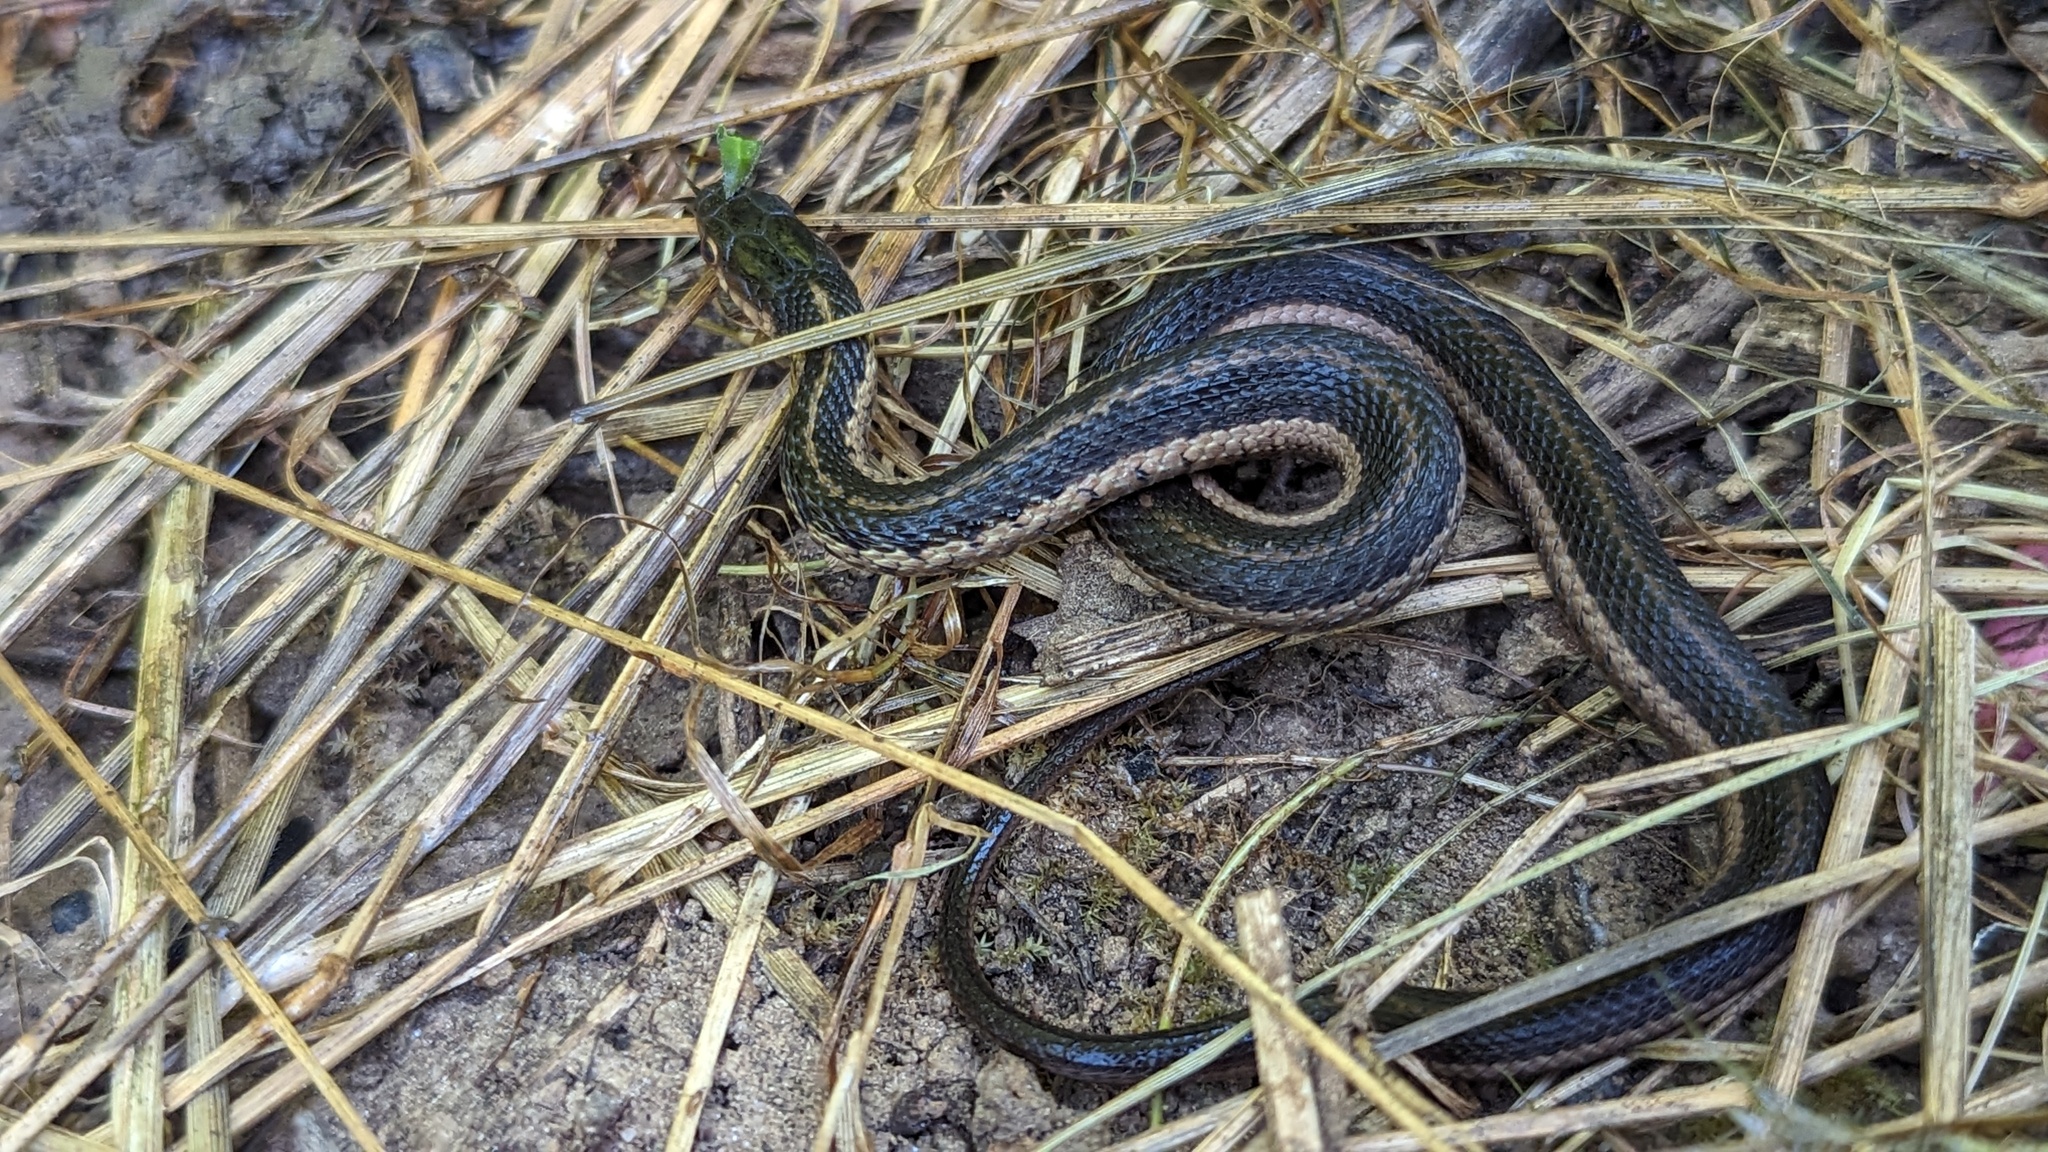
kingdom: Animalia
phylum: Chordata
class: Squamata
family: Colubridae
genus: Thamnophis
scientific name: Thamnophis sirtalis
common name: Common garter snake
